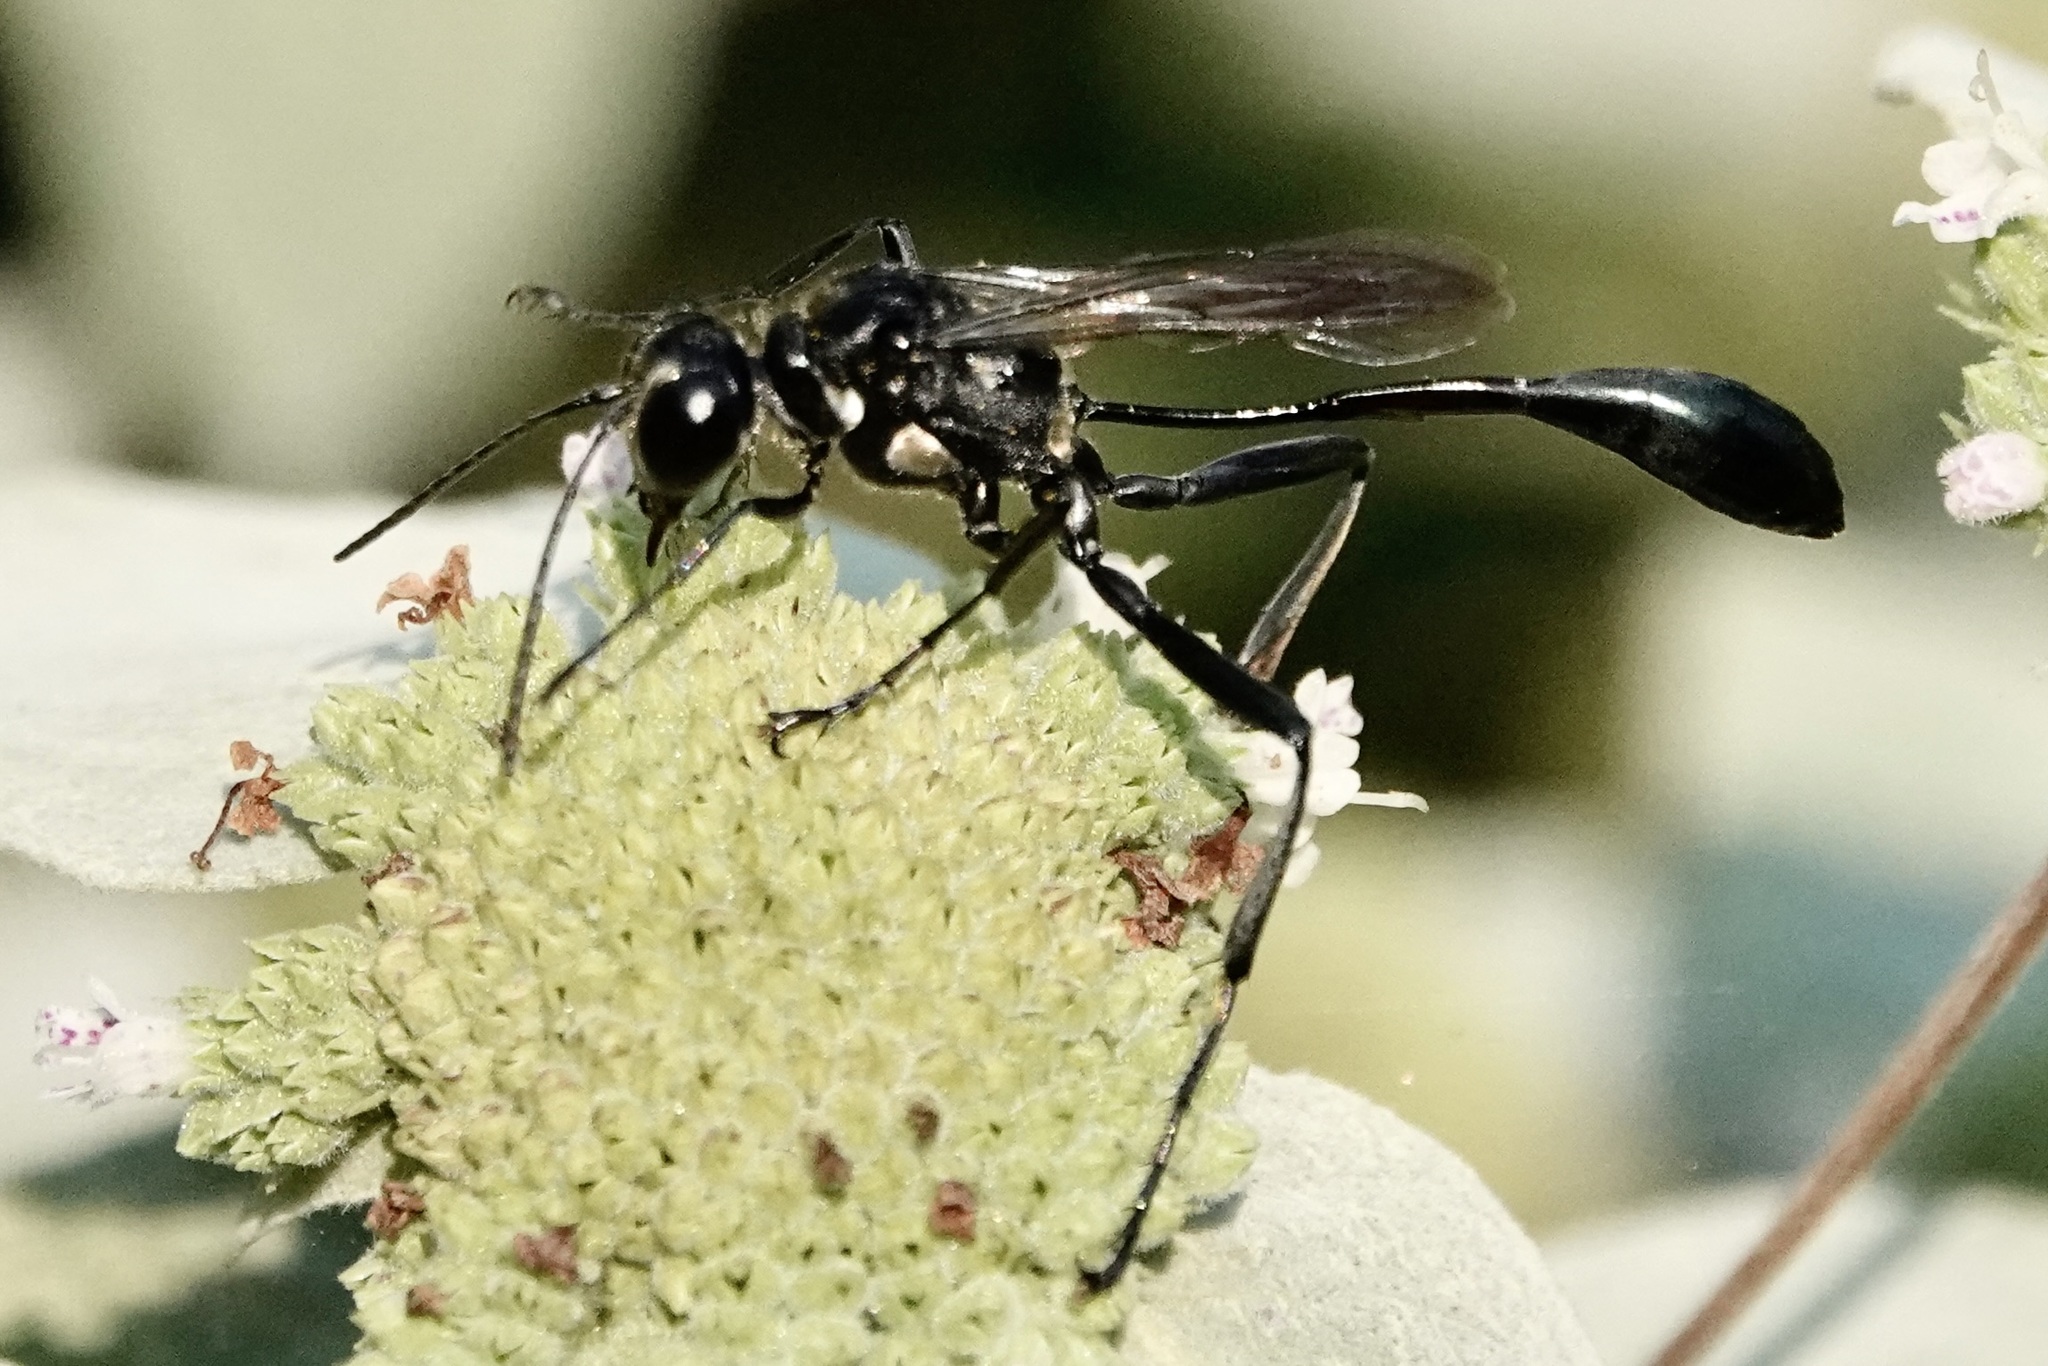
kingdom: Animalia
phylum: Arthropoda
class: Insecta
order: Hymenoptera
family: Sphecidae
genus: Eremnophila
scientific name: Eremnophila aureonotata
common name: Gold-marked thread-waisted wasp
